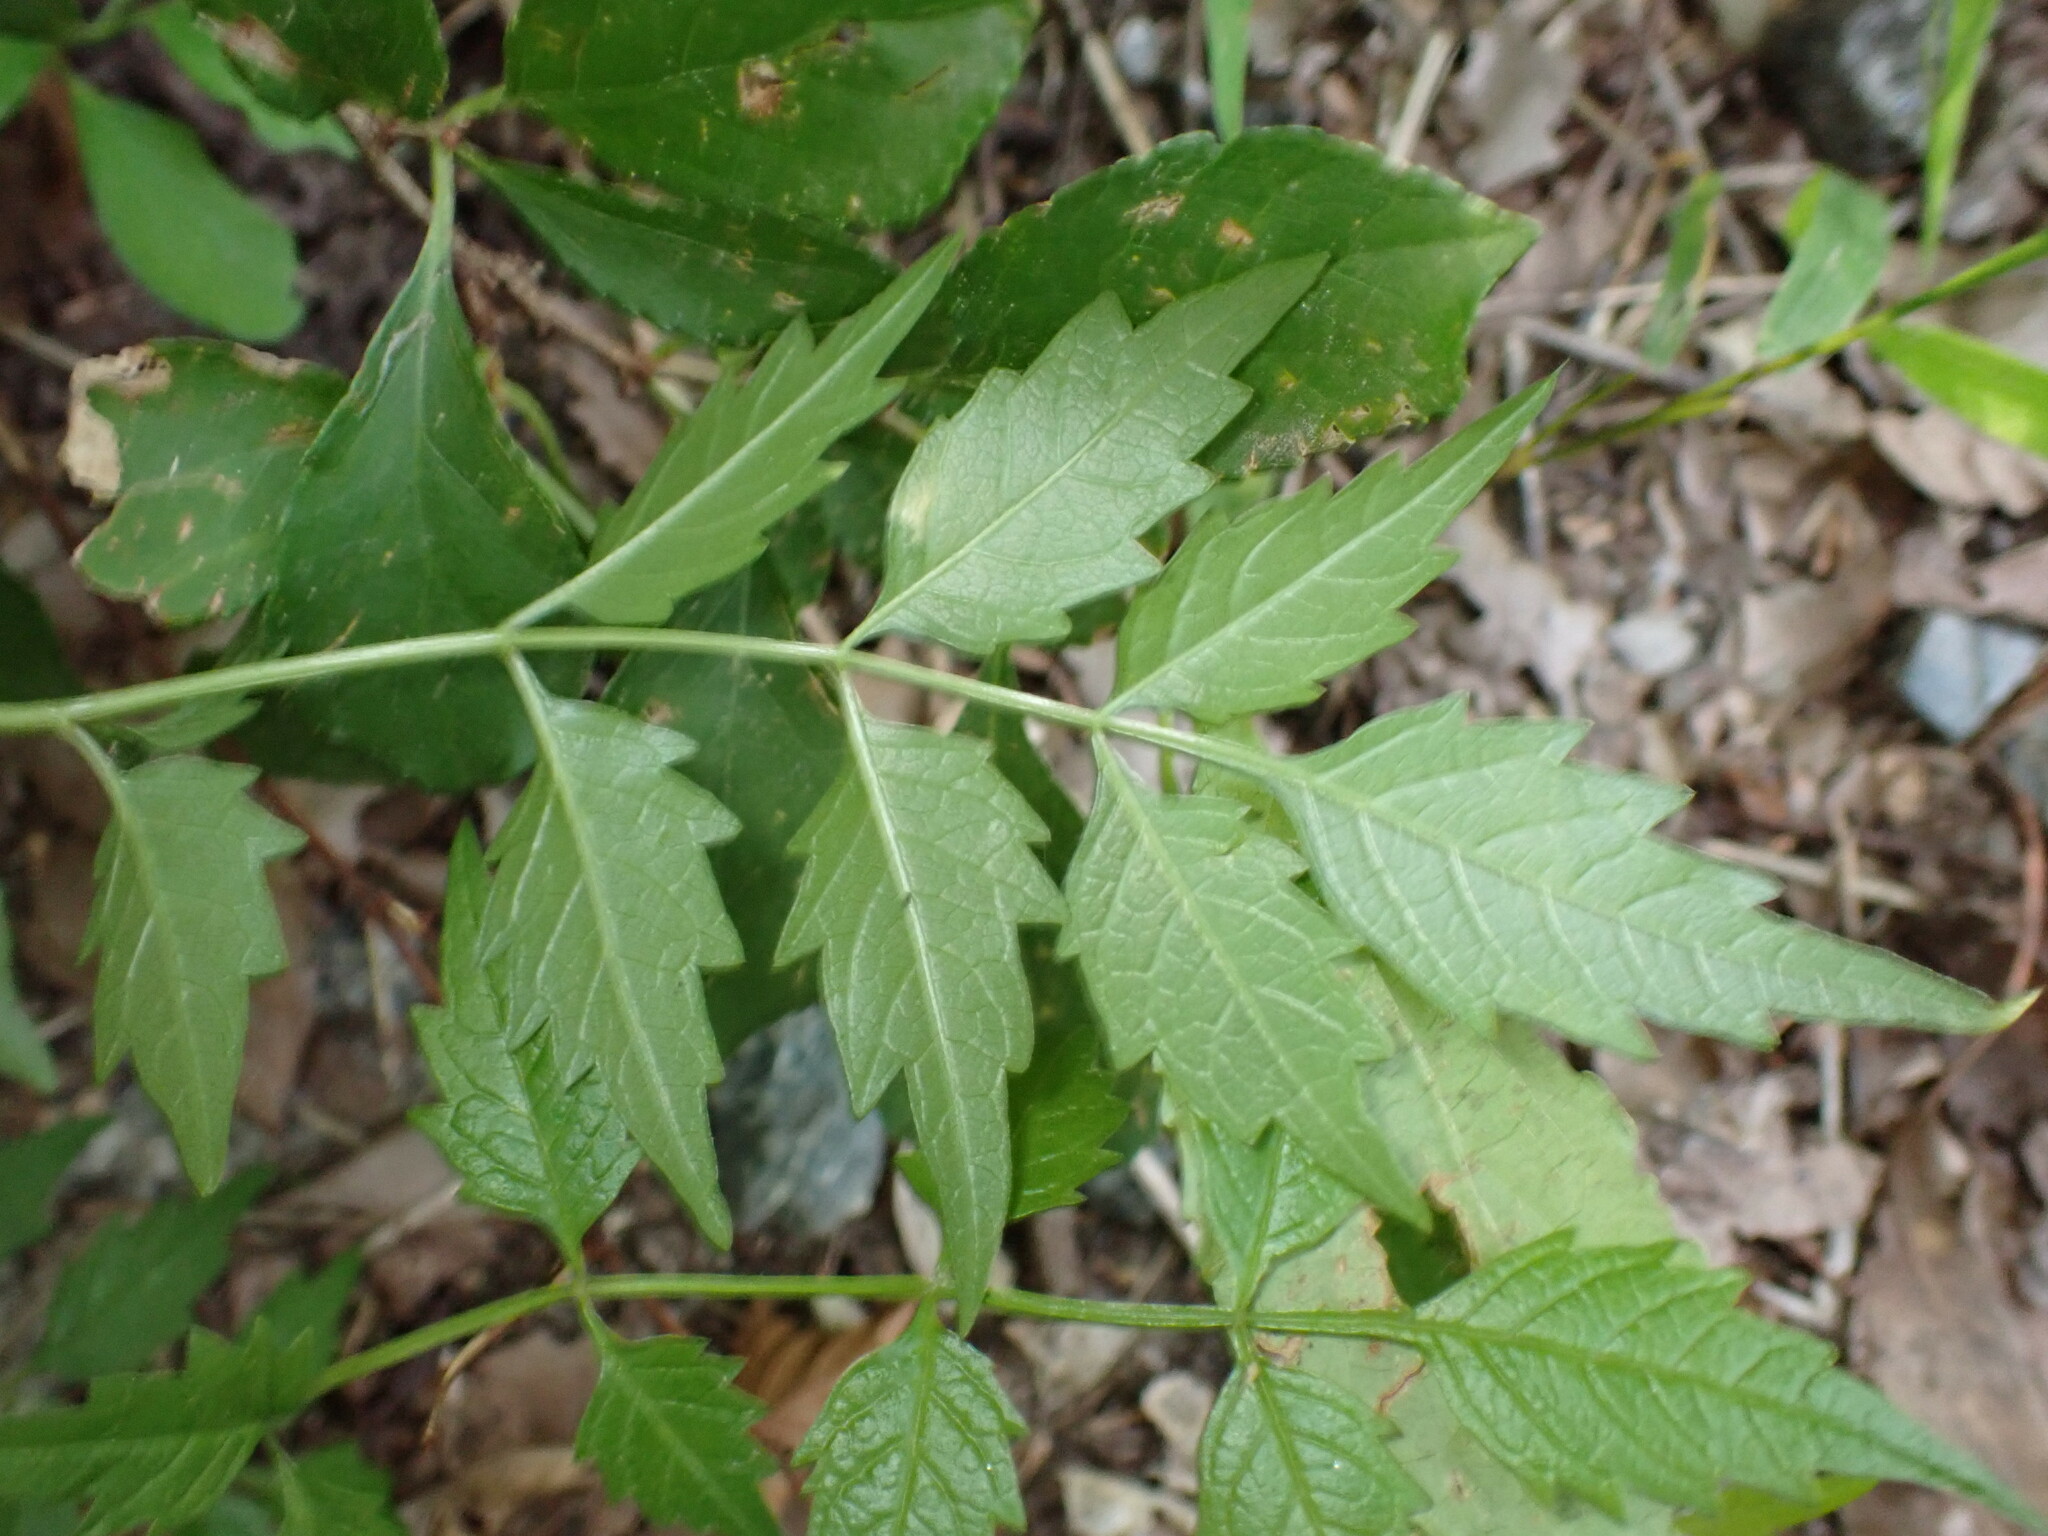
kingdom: Plantae
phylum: Tracheophyta
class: Magnoliopsida
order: Lamiales
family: Bignoniaceae
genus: Campsis
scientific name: Campsis radicans
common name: Trumpet-creeper
